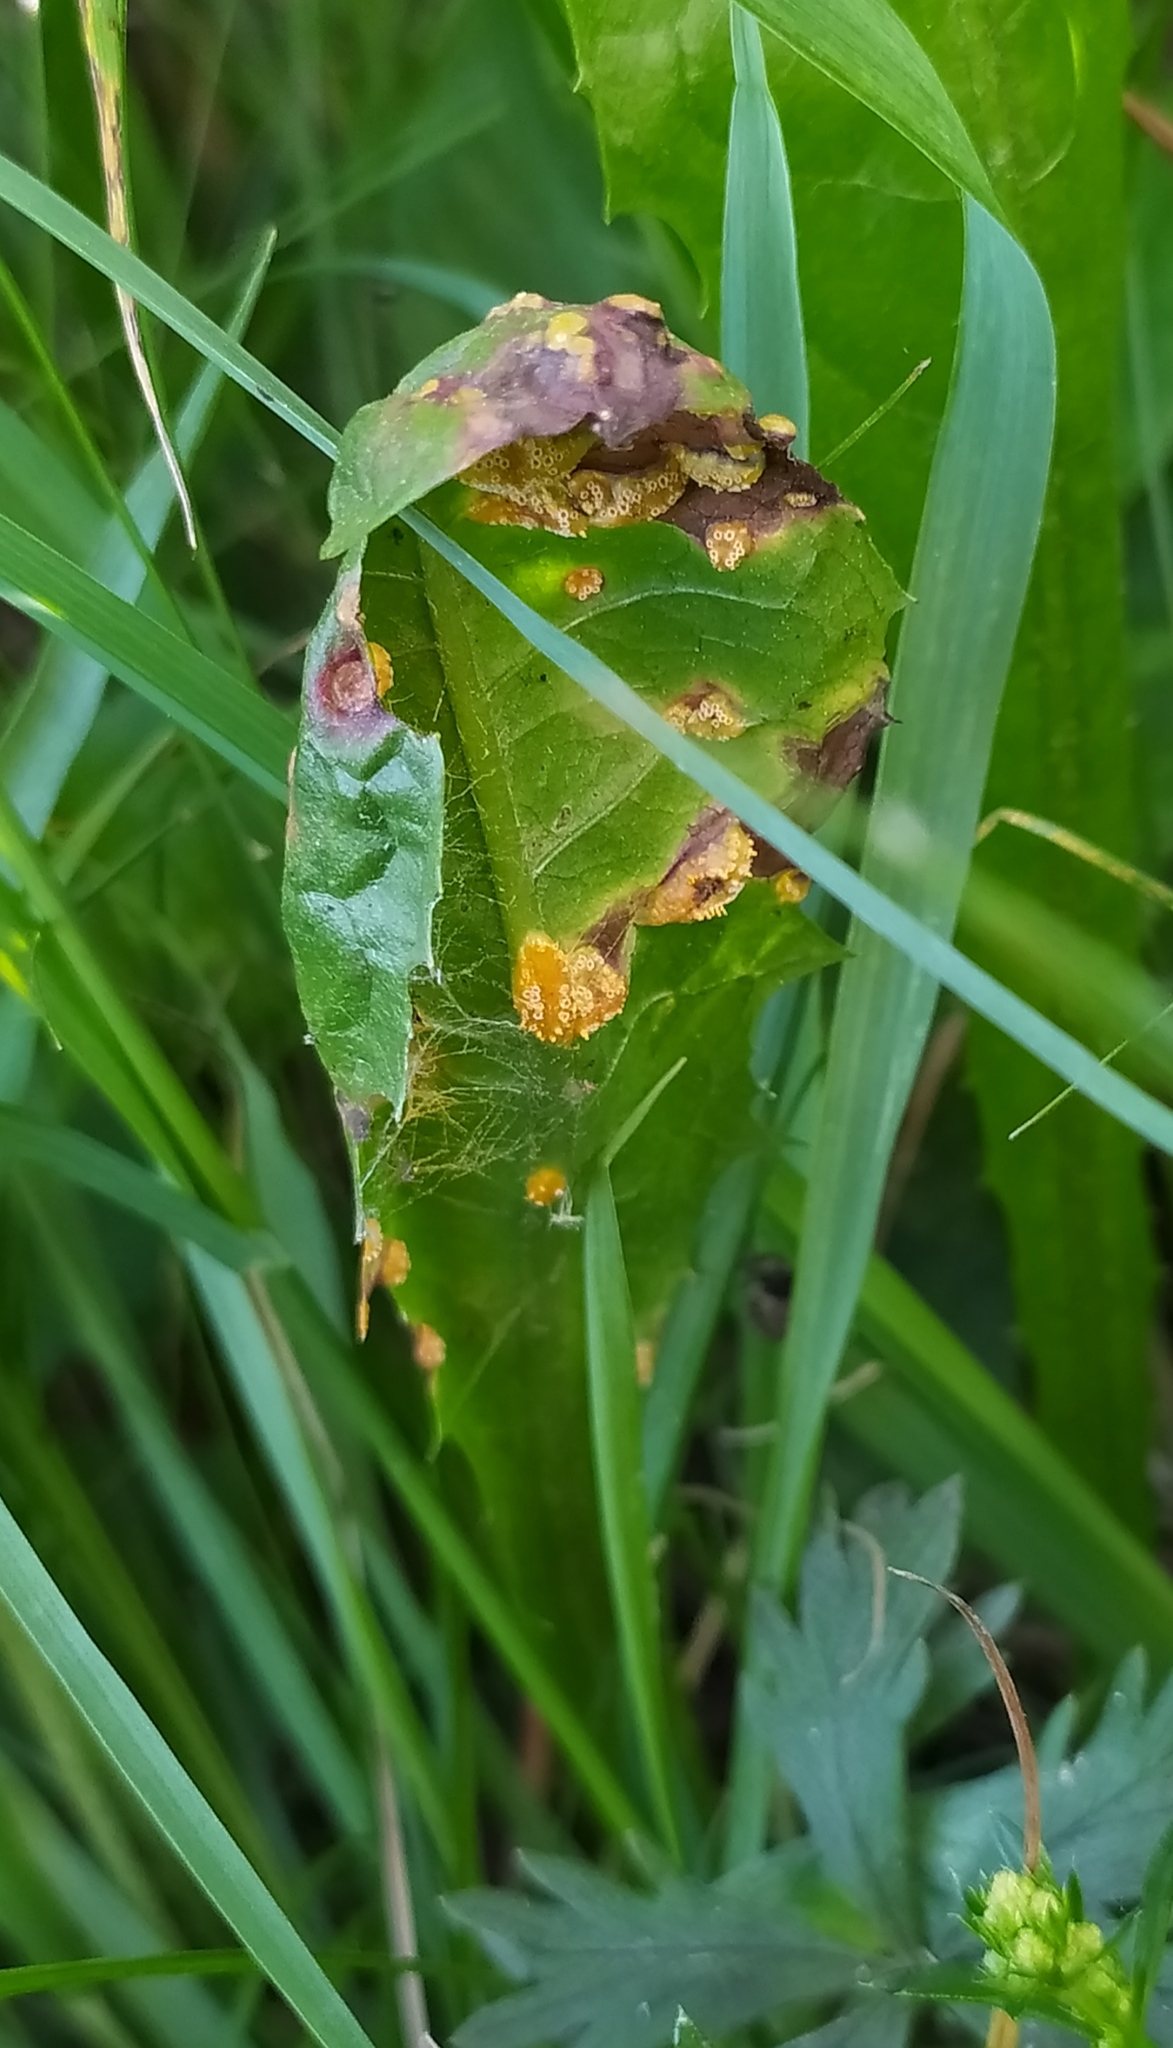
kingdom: Fungi
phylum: Basidiomycota
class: Pucciniomycetes
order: Pucciniales
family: Pucciniaceae
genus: Puccinia
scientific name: Puccinia dioicae
